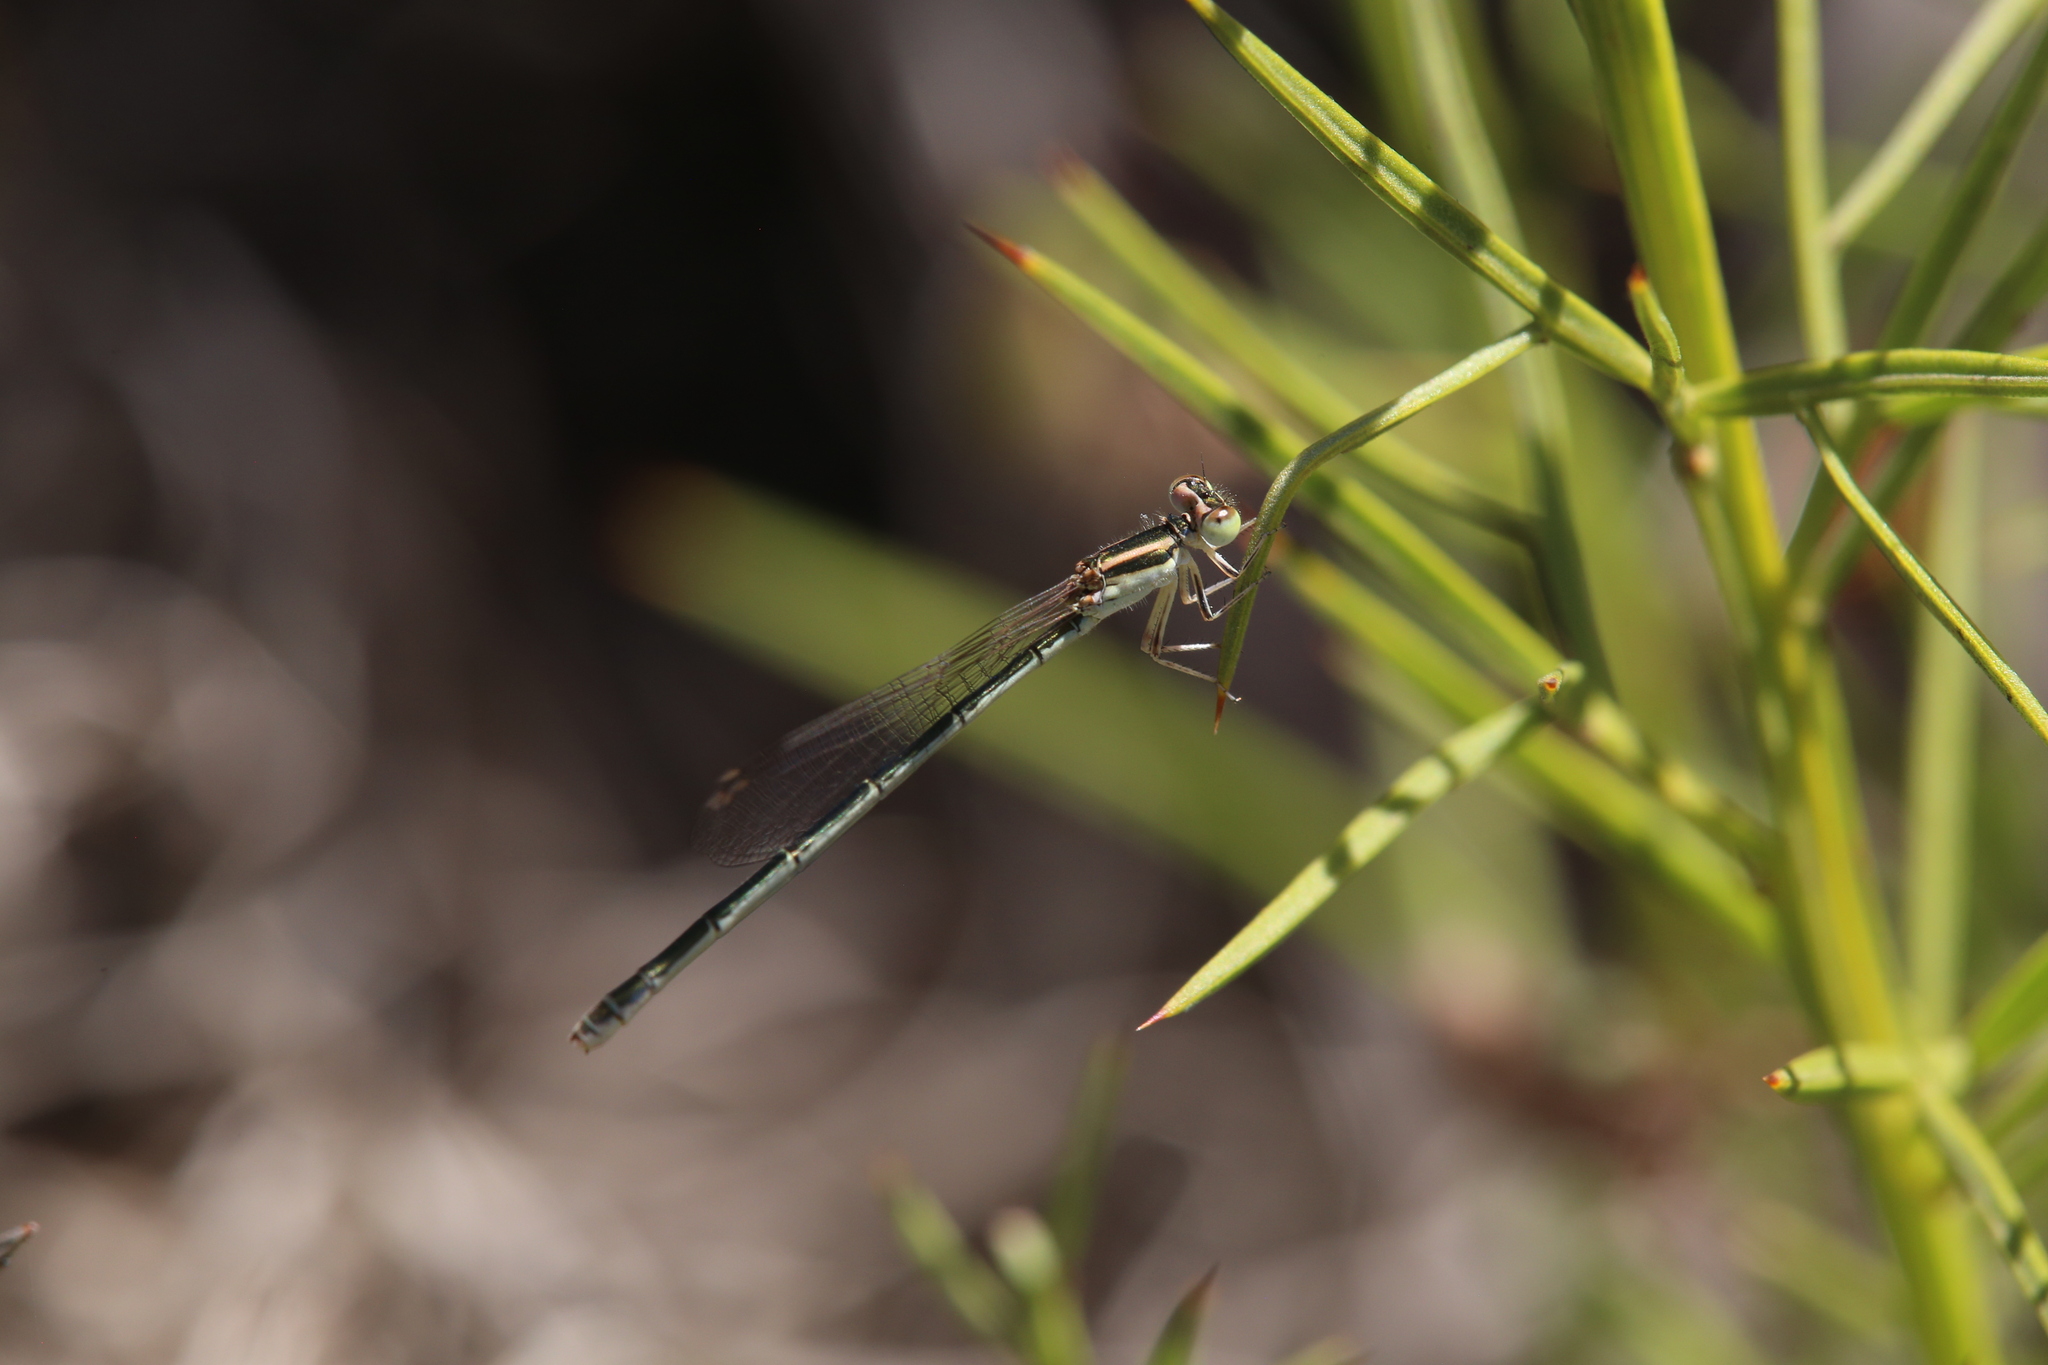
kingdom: Animalia
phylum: Arthropoda
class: Insecta
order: Odonata
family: Coenagrionidae
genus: Ischnura
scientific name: Ischnura aurora
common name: Gossamer damselfly
